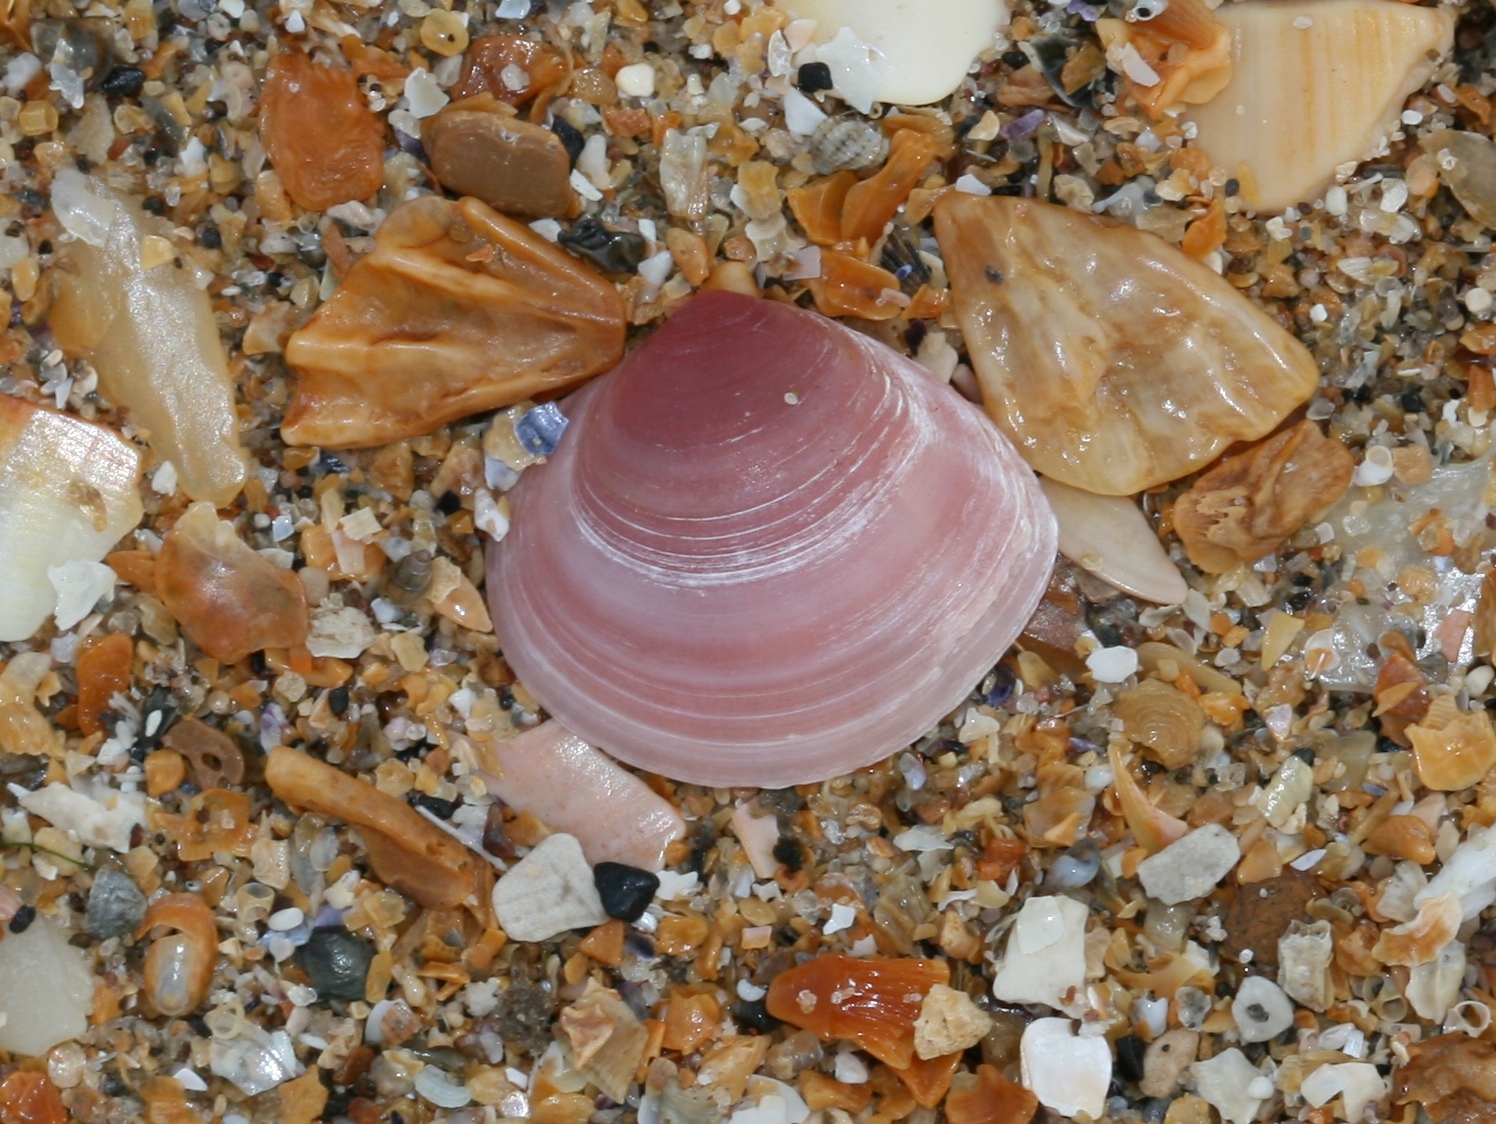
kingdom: Animalia
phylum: Mollusca
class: Bivalvia
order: Cardiida
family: Tellinidae
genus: Macoma
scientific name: Macoma balthica
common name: Baltic tellin
